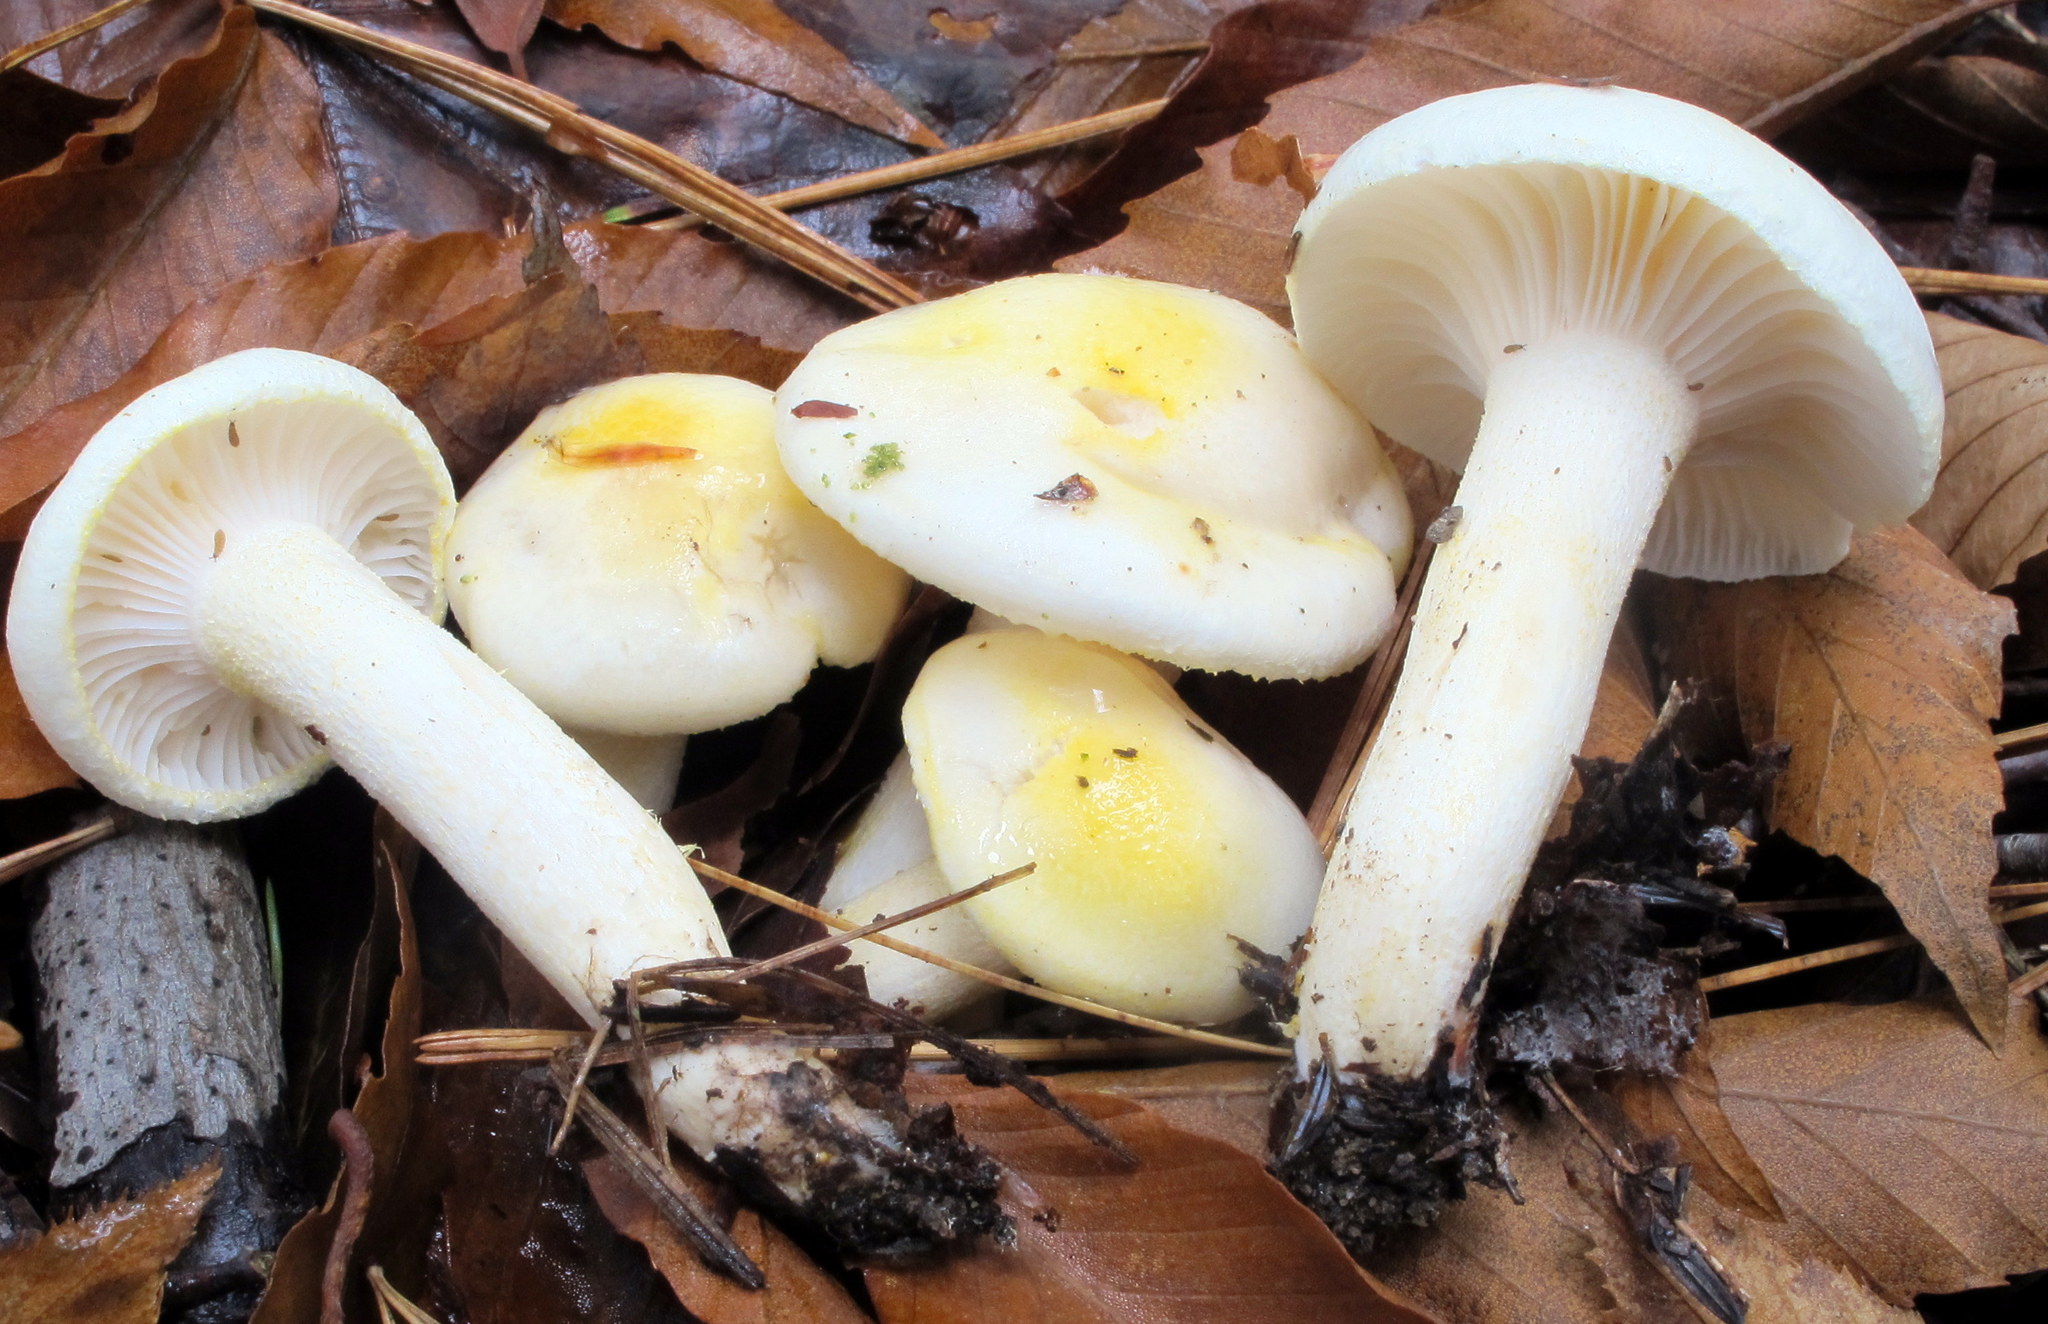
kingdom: Fungi
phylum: Basidiomycota
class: Agaricomycetes
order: Agaricales
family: Hygrophoraceae
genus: Hygrophorus
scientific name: Hygrophorus chrysodon
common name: Gold flecked woodwax
